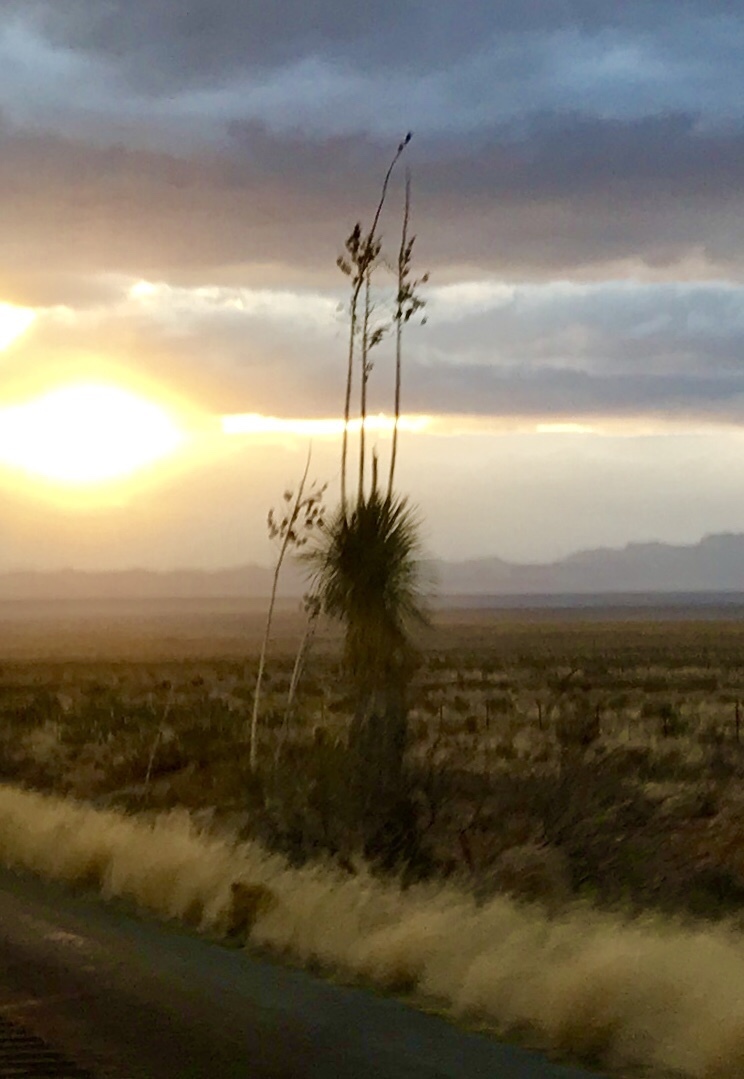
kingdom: Plantae
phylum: Tracheophyta
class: Liliopsida
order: Asparagales
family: Asparagaceae
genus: Yucca
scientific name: Yucca elata
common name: Palmella
